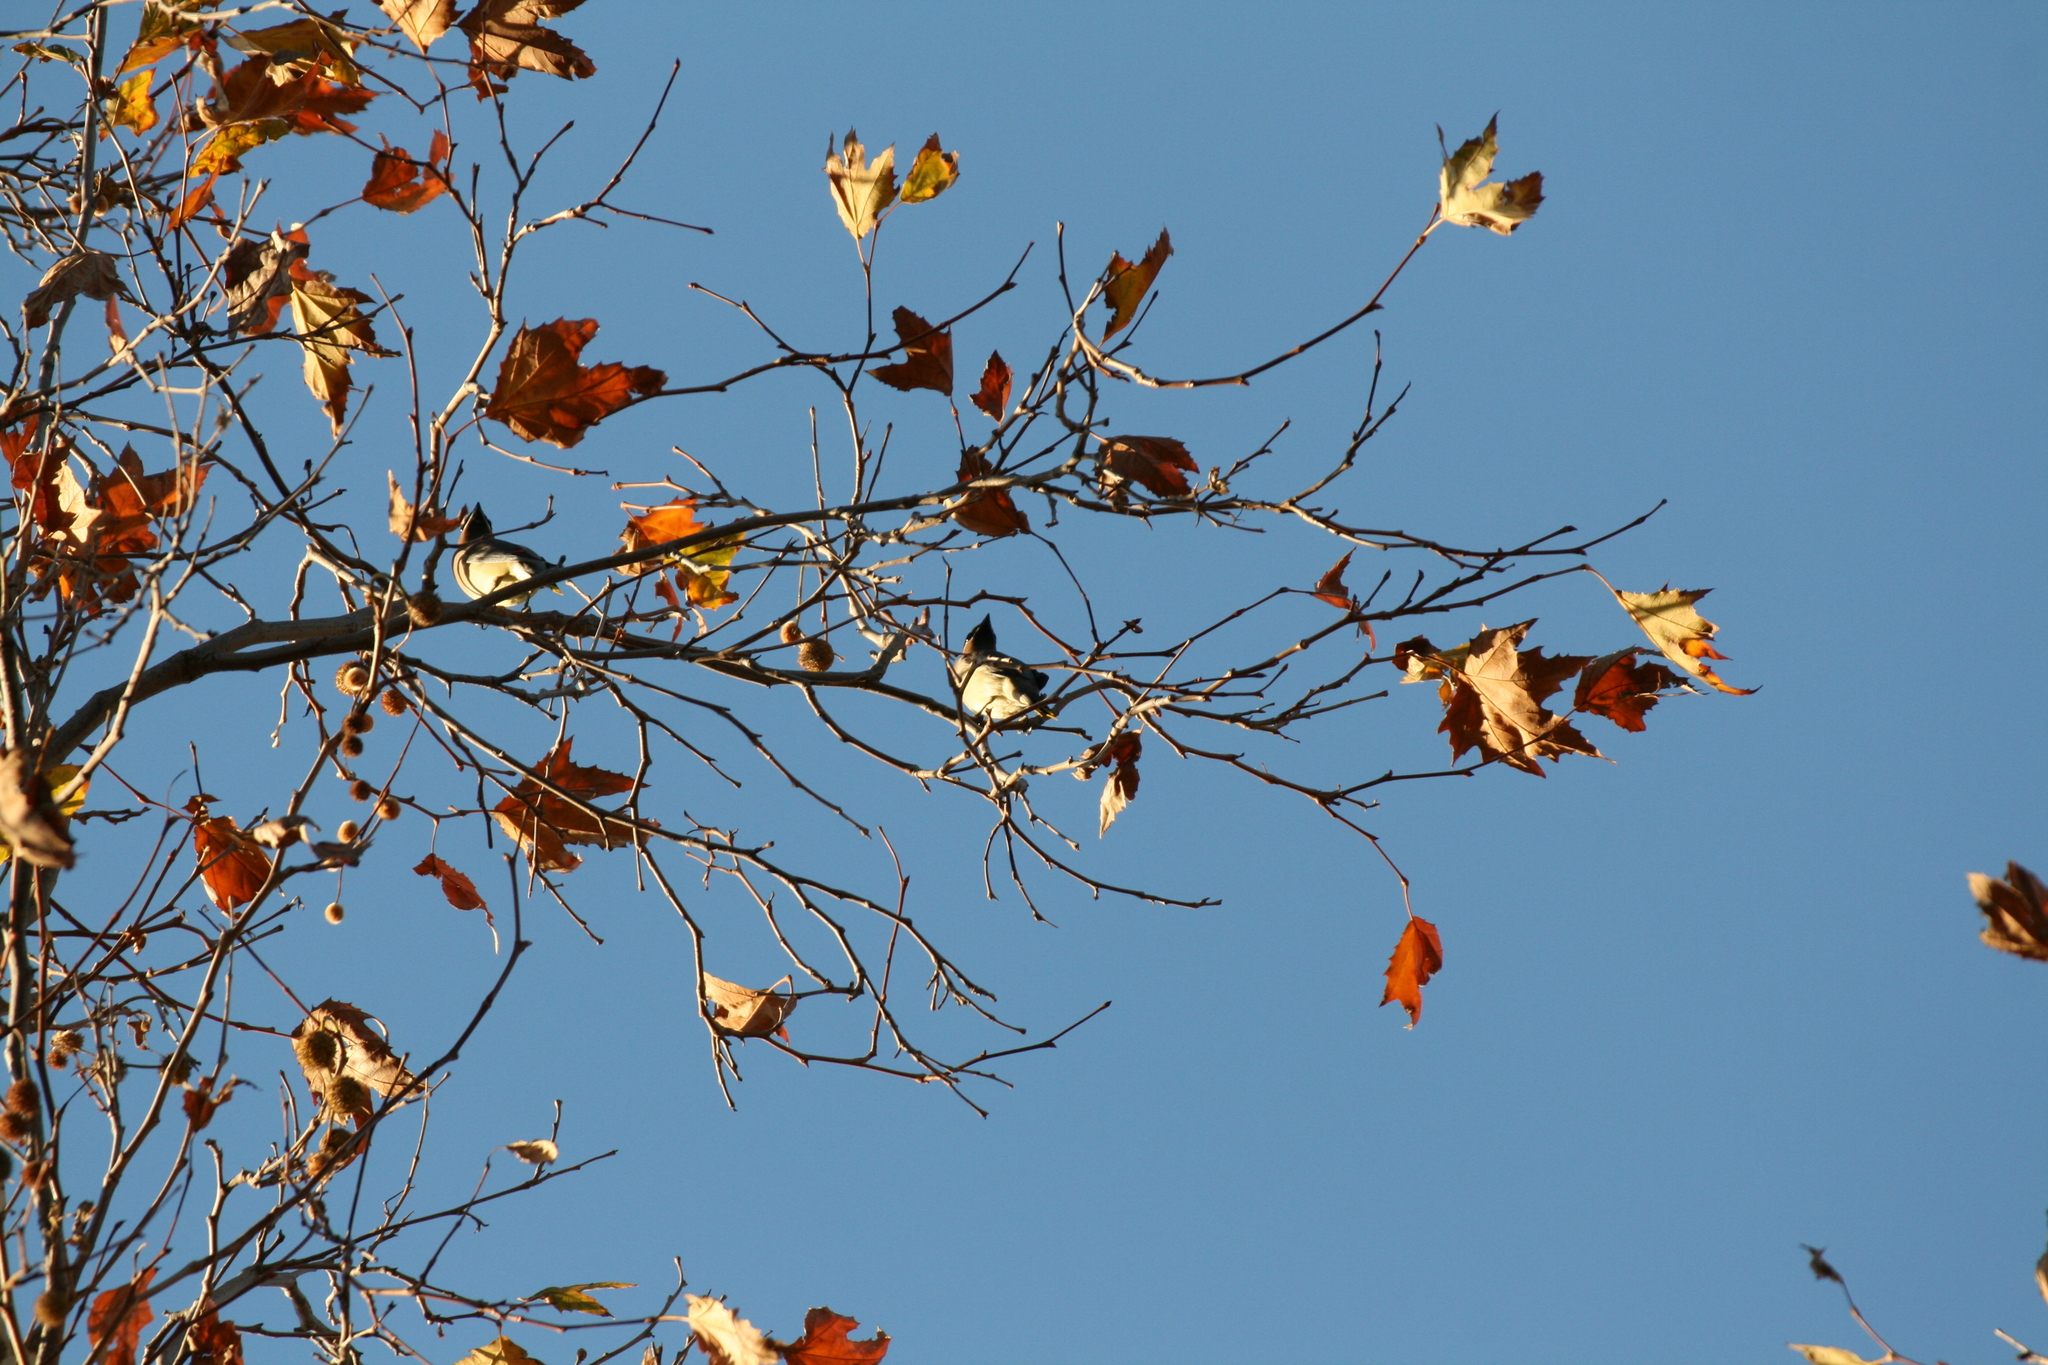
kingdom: Animalia
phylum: Chordata
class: Aves
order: Passeriformes
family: Bombycillidae
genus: Bombycilla
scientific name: Bombycilla cedrorum
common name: Cedar waxwing
